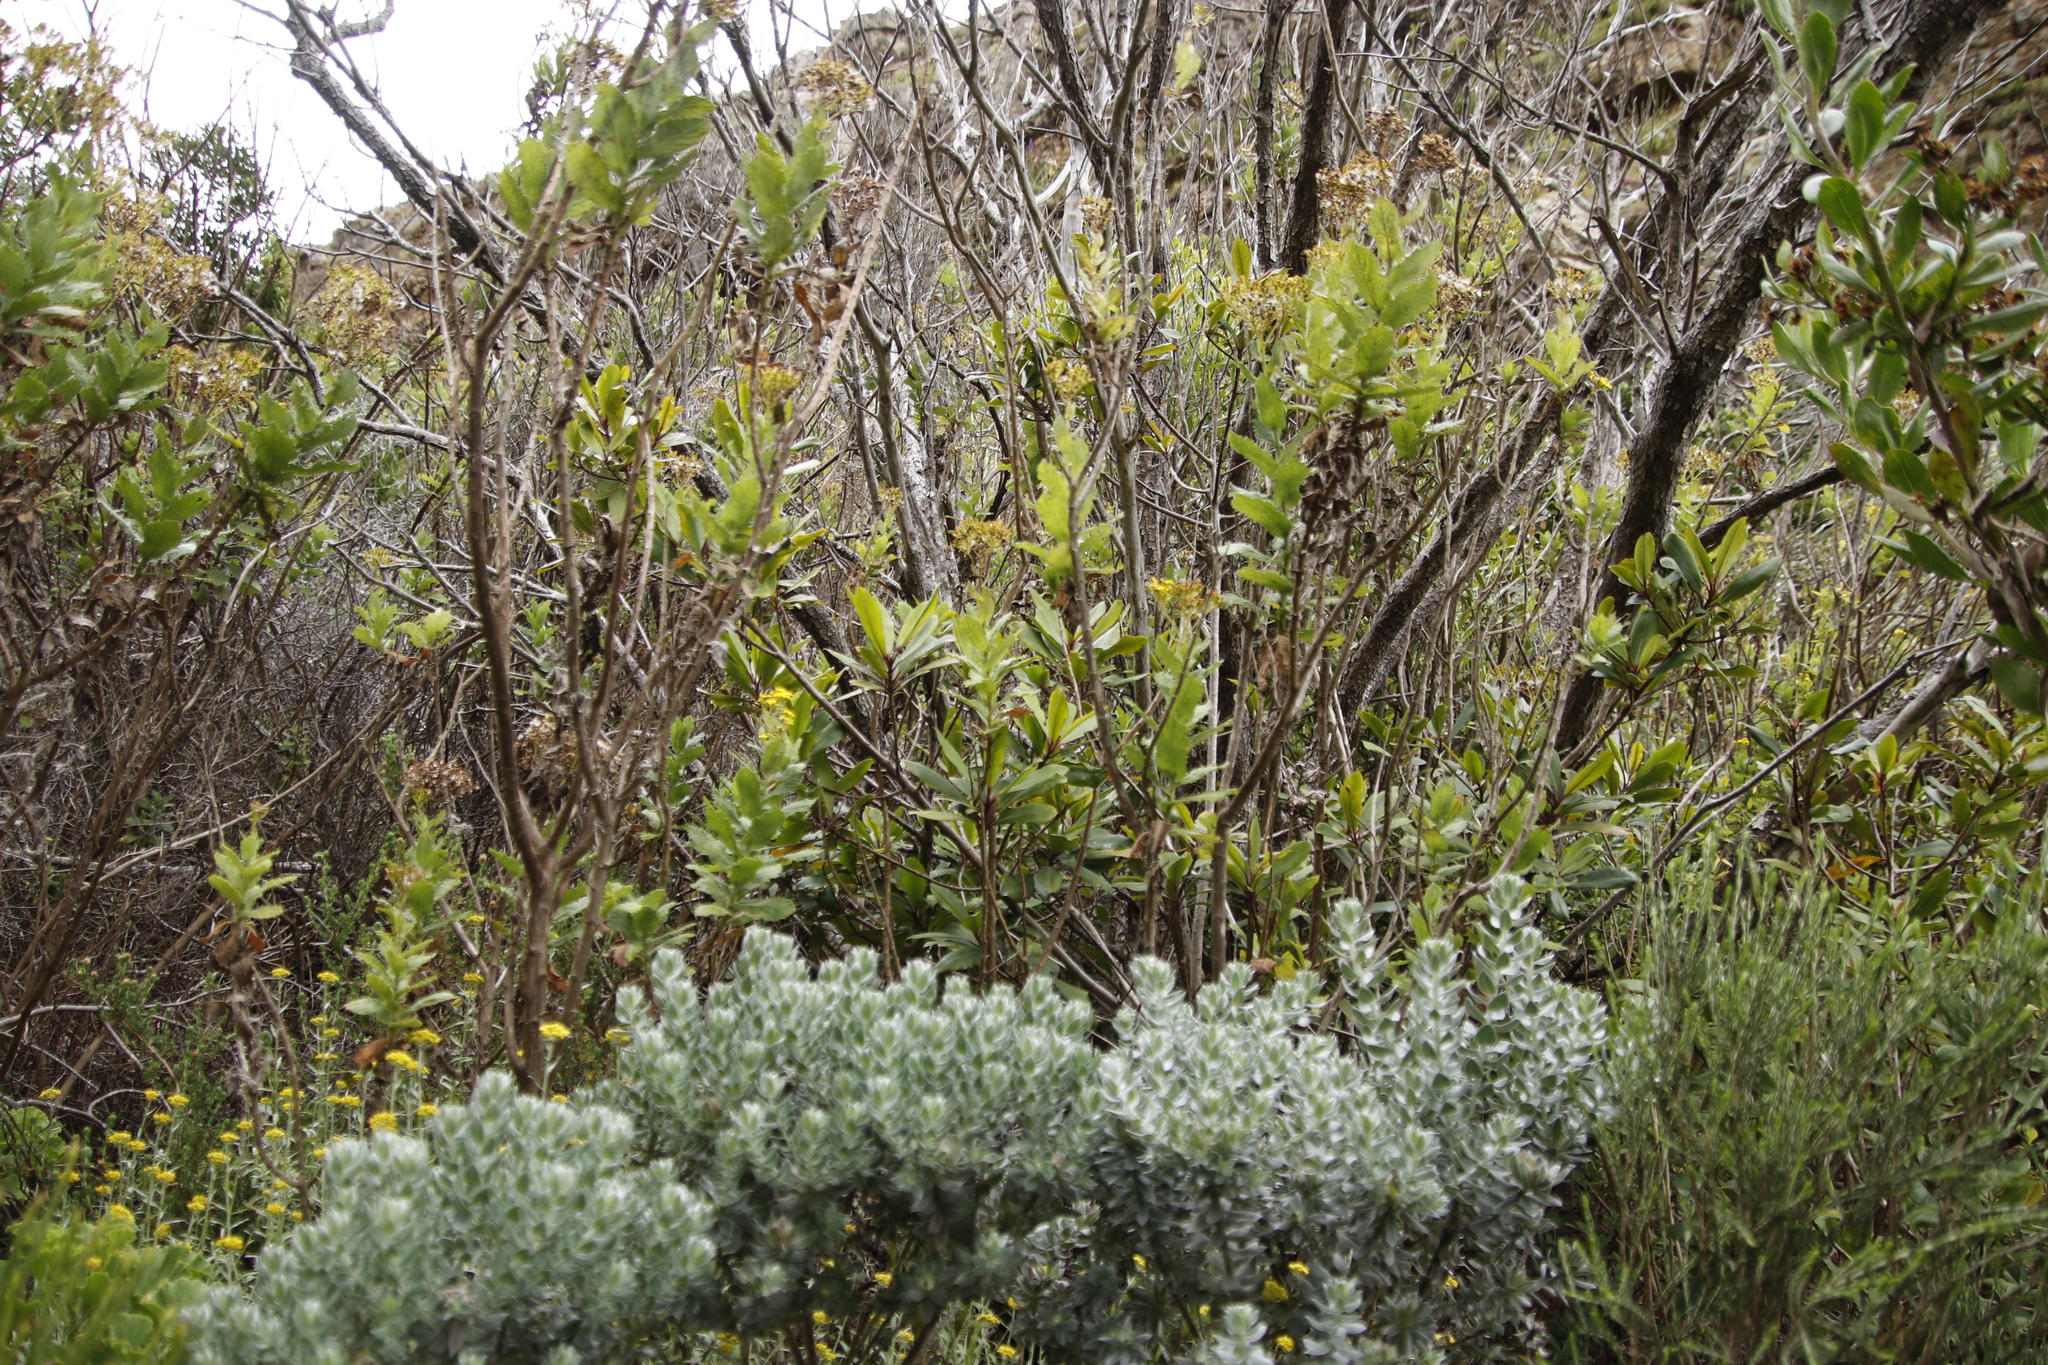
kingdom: Plantae
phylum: Tracheophyta
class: Magnoliopsida
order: Ericales
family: Primulaceae
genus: Myrsine
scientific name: Myrsine melanophloeos
